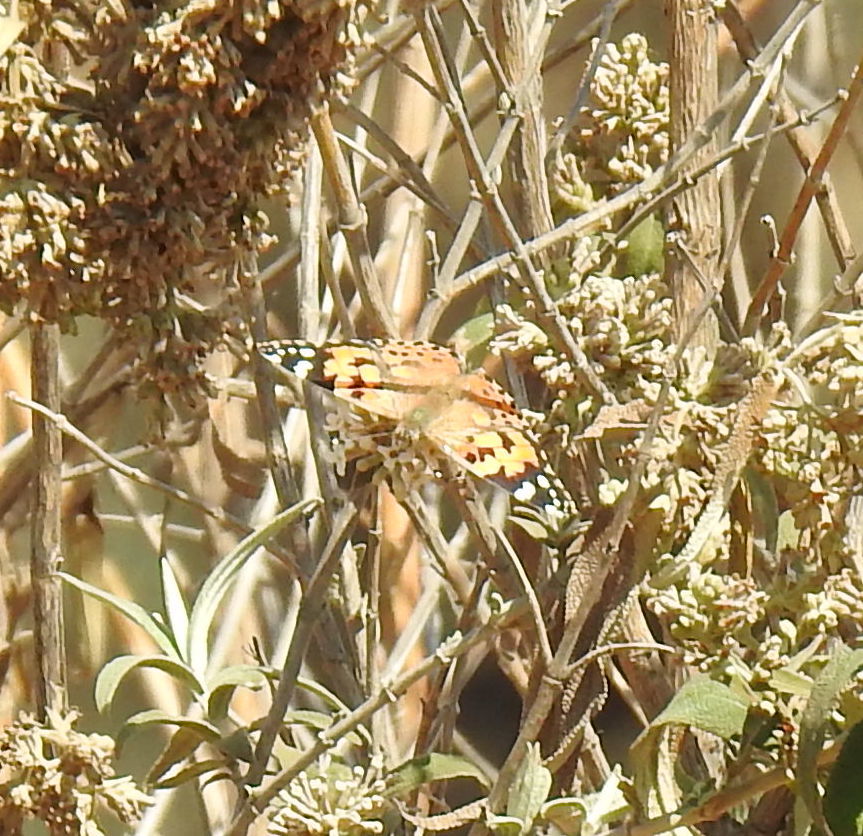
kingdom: Animalia
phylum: Arthropoda
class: Insecta
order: Lepidoptera
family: Nymphalidae
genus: Vanessa
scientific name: Vanessa cardui
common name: Painted lady
